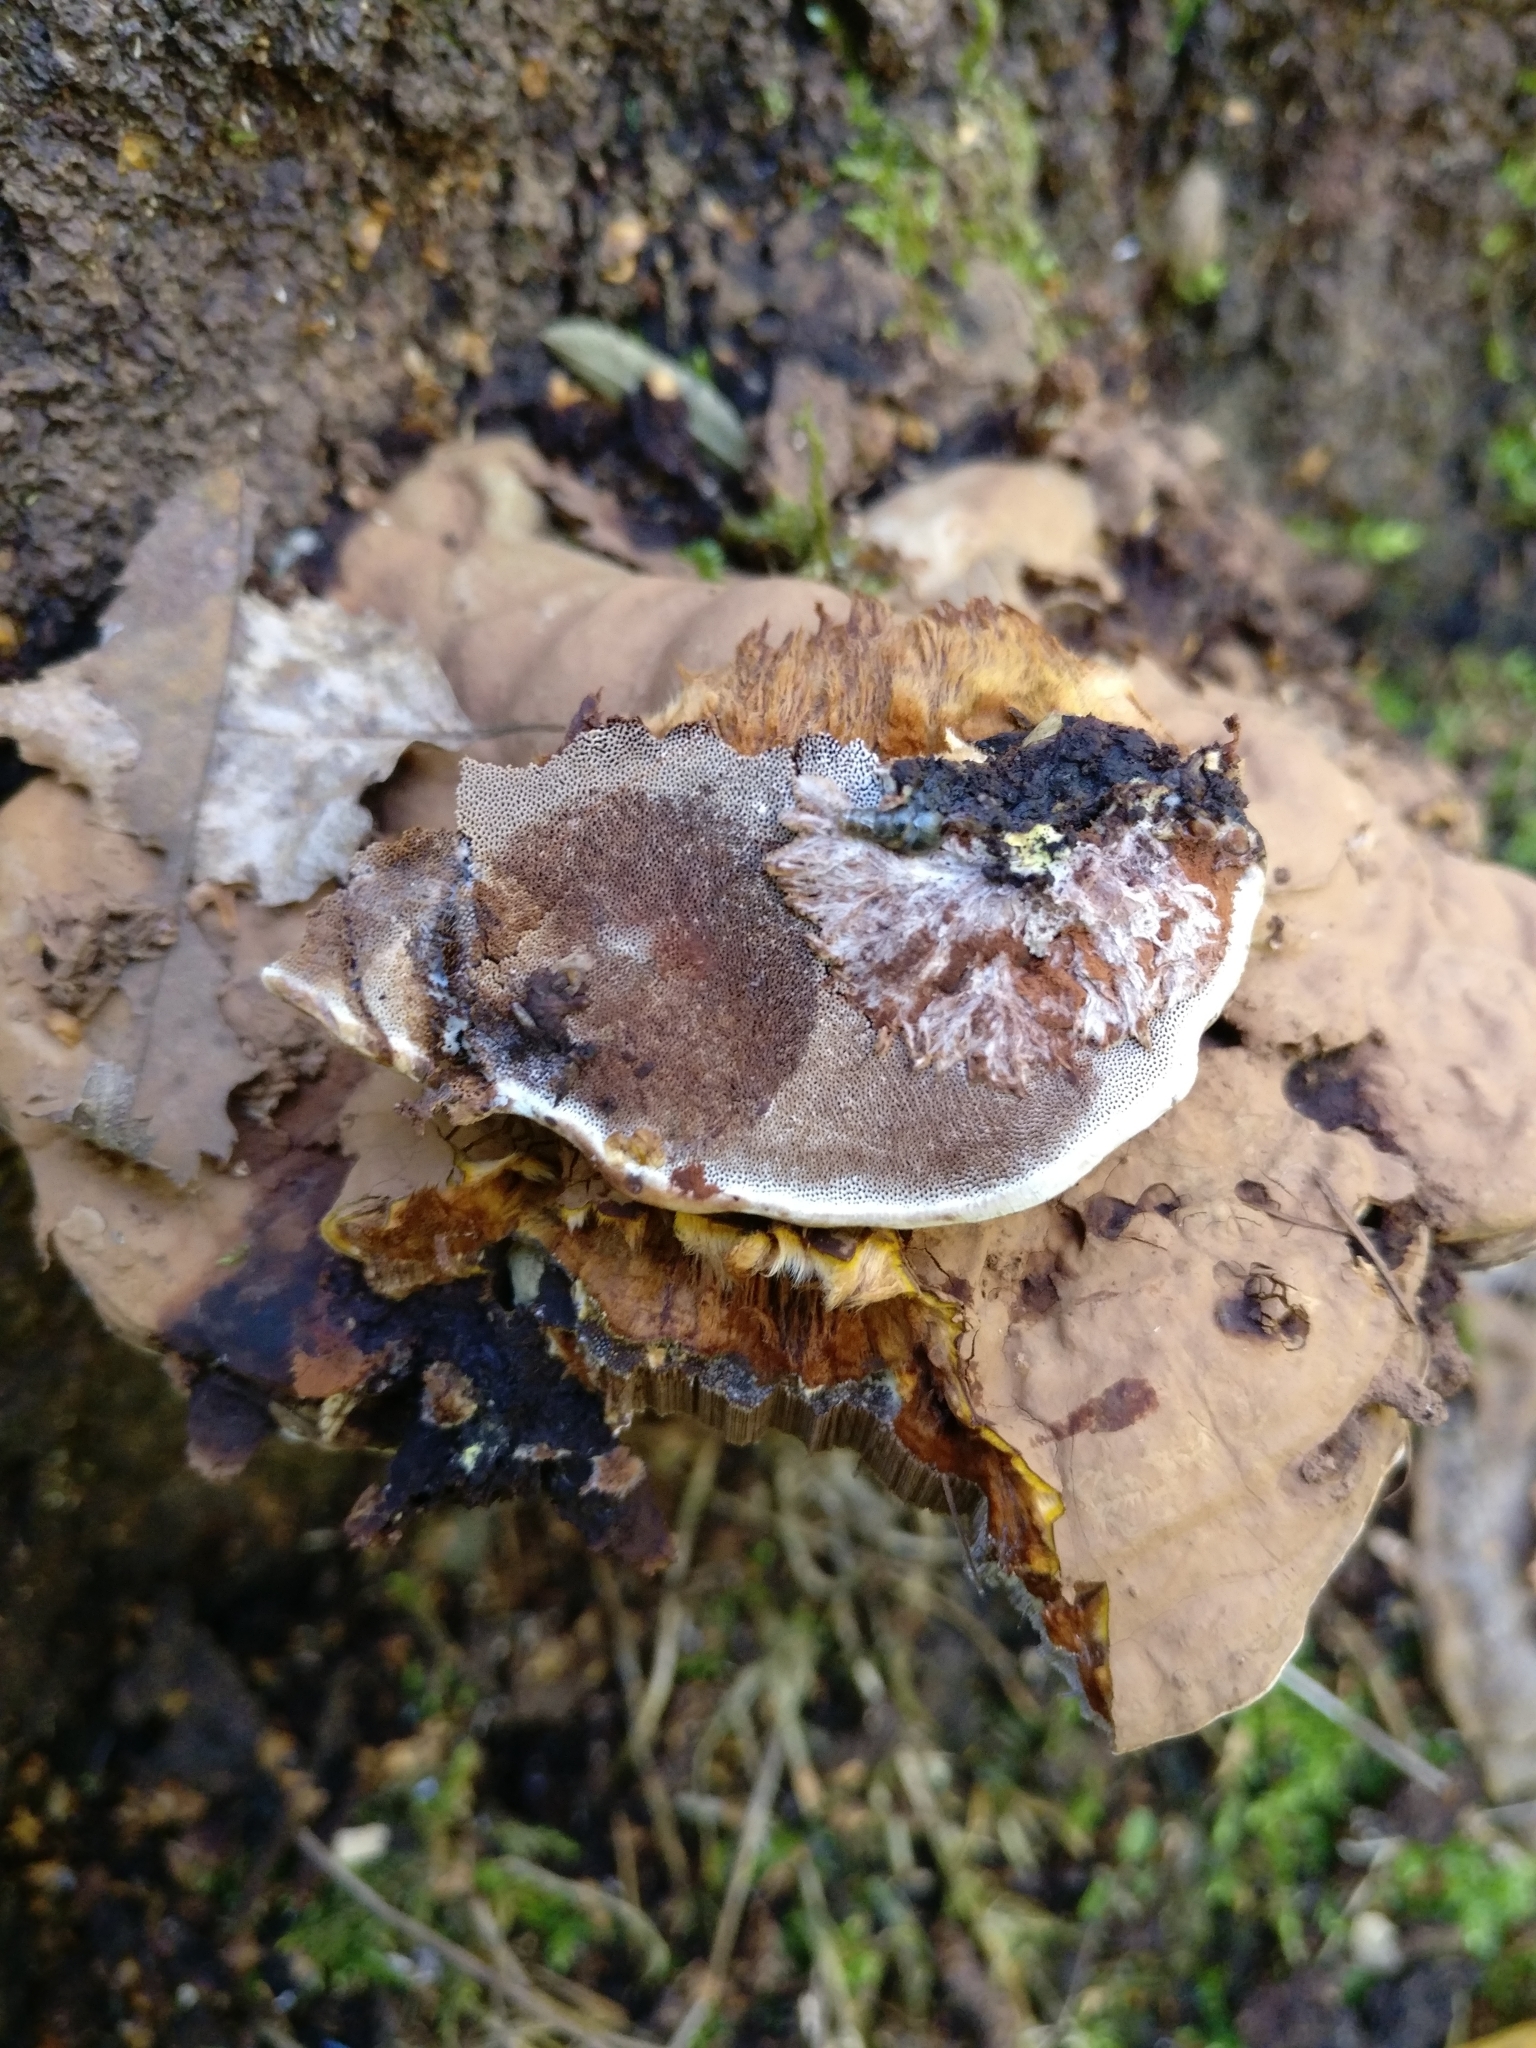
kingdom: Fungi
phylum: Basidiomycota
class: Agaricomycetes
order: Polyporales
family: Polyporaceae
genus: Ganoderma
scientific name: Ganoderma applanatum
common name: Artist's bracket
